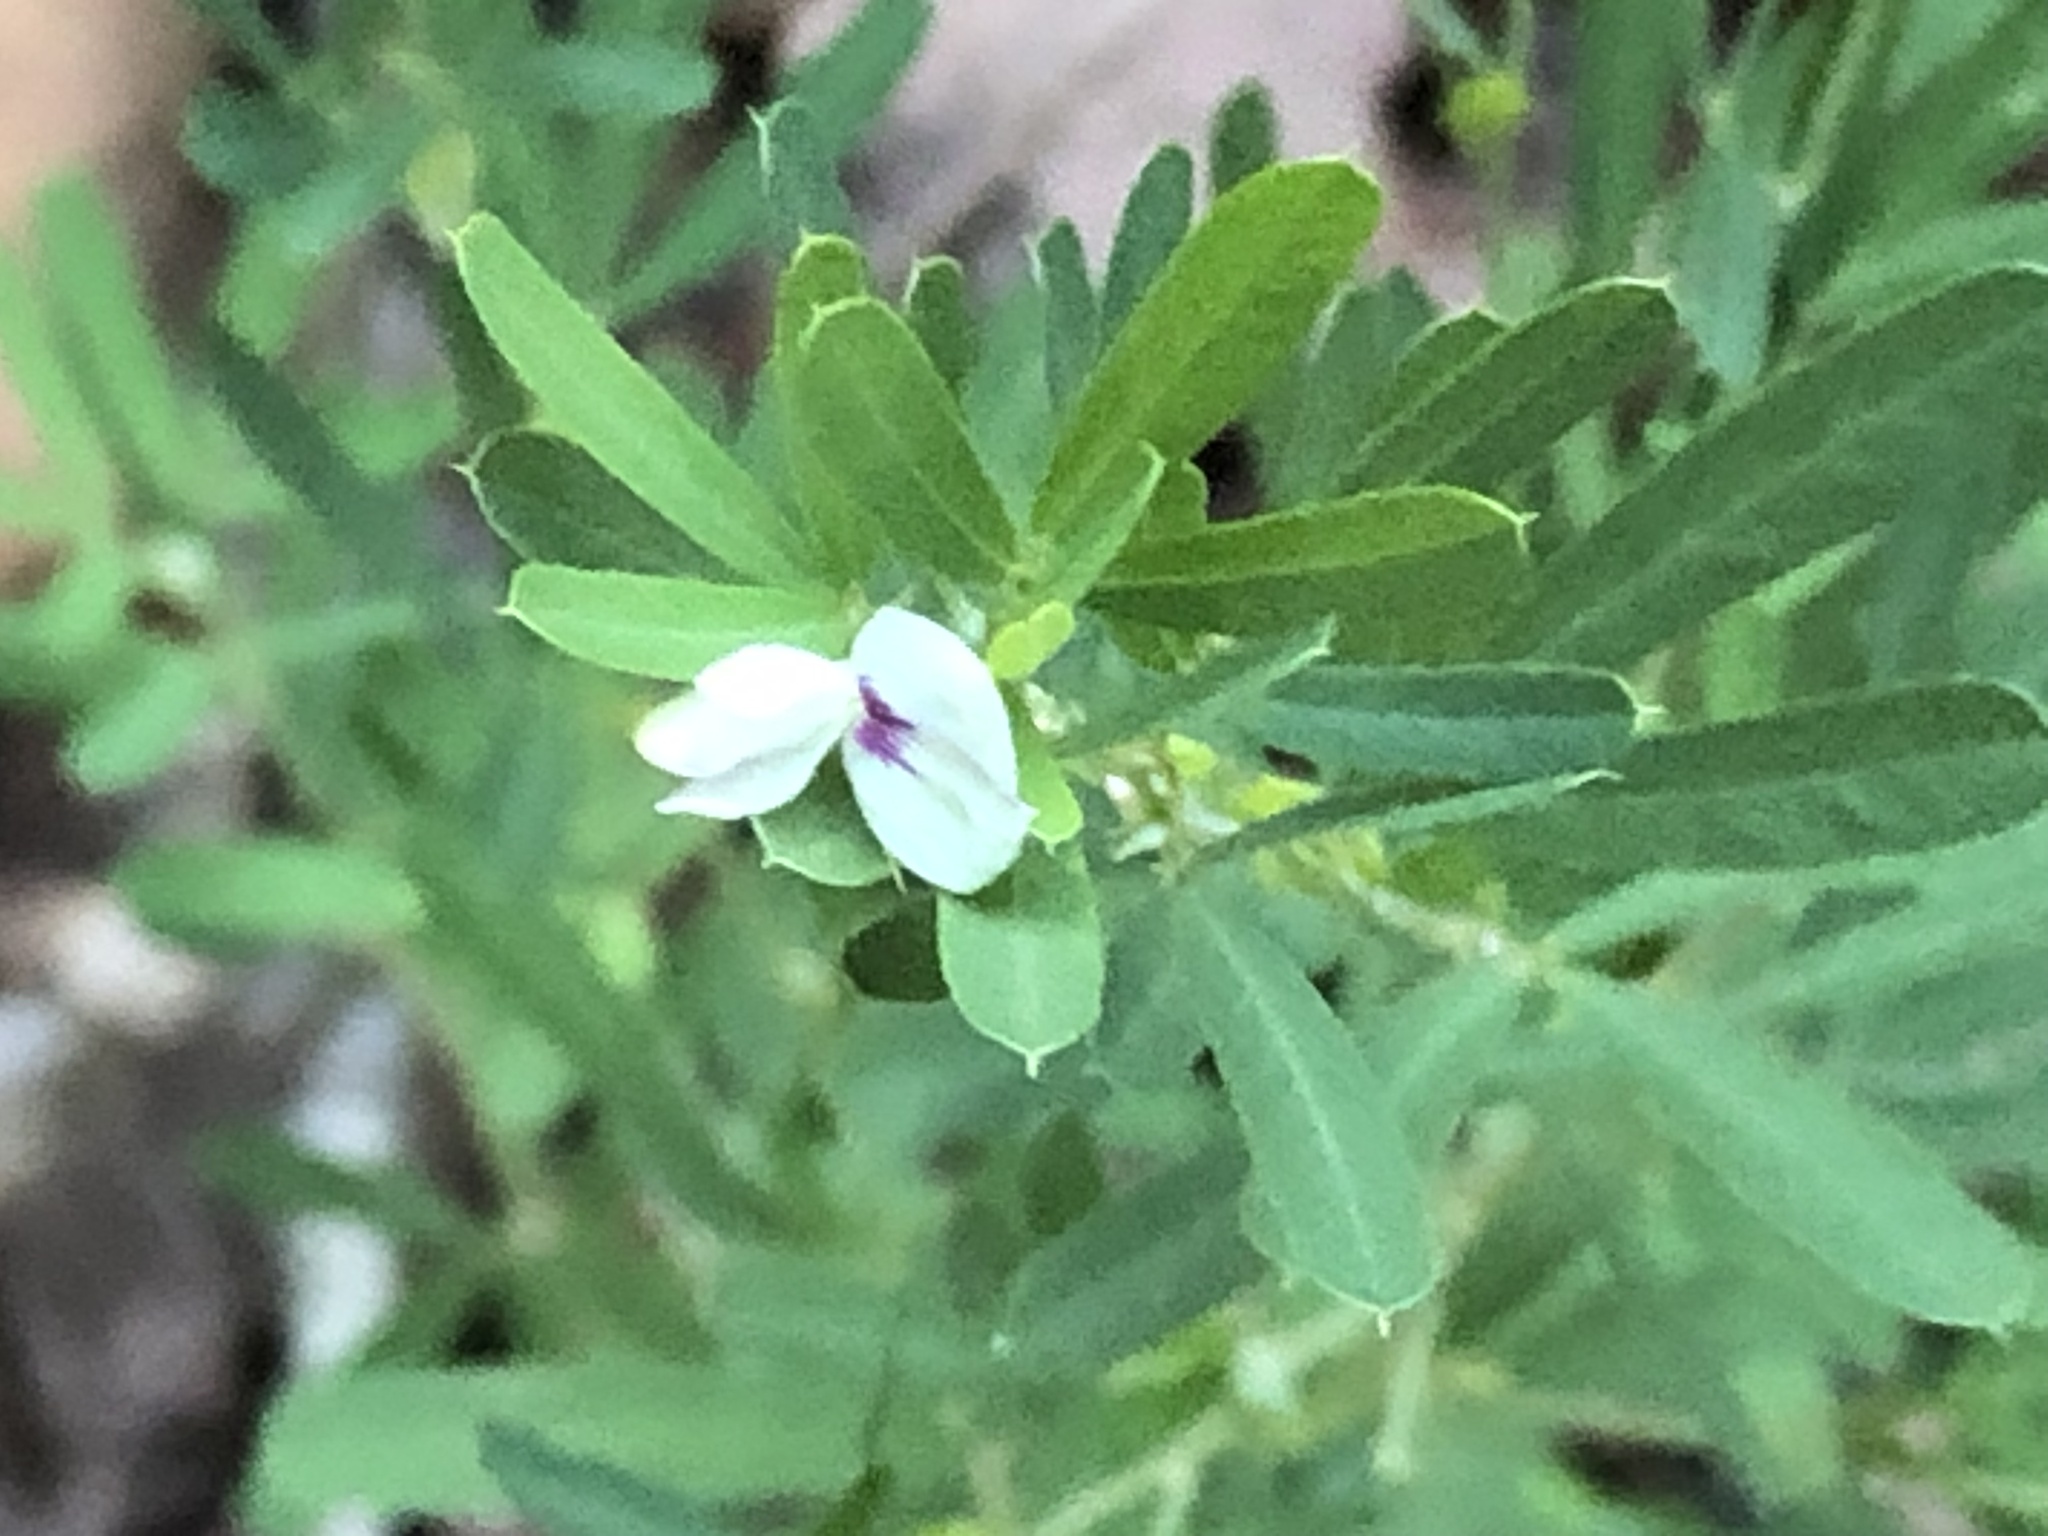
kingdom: Plantae
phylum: Tracheophyta
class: Magnoliopsida
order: Fabales
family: Fabaceae
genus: Lespedeza
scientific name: Lespedeza cuneata
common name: Chinese bush-clover
